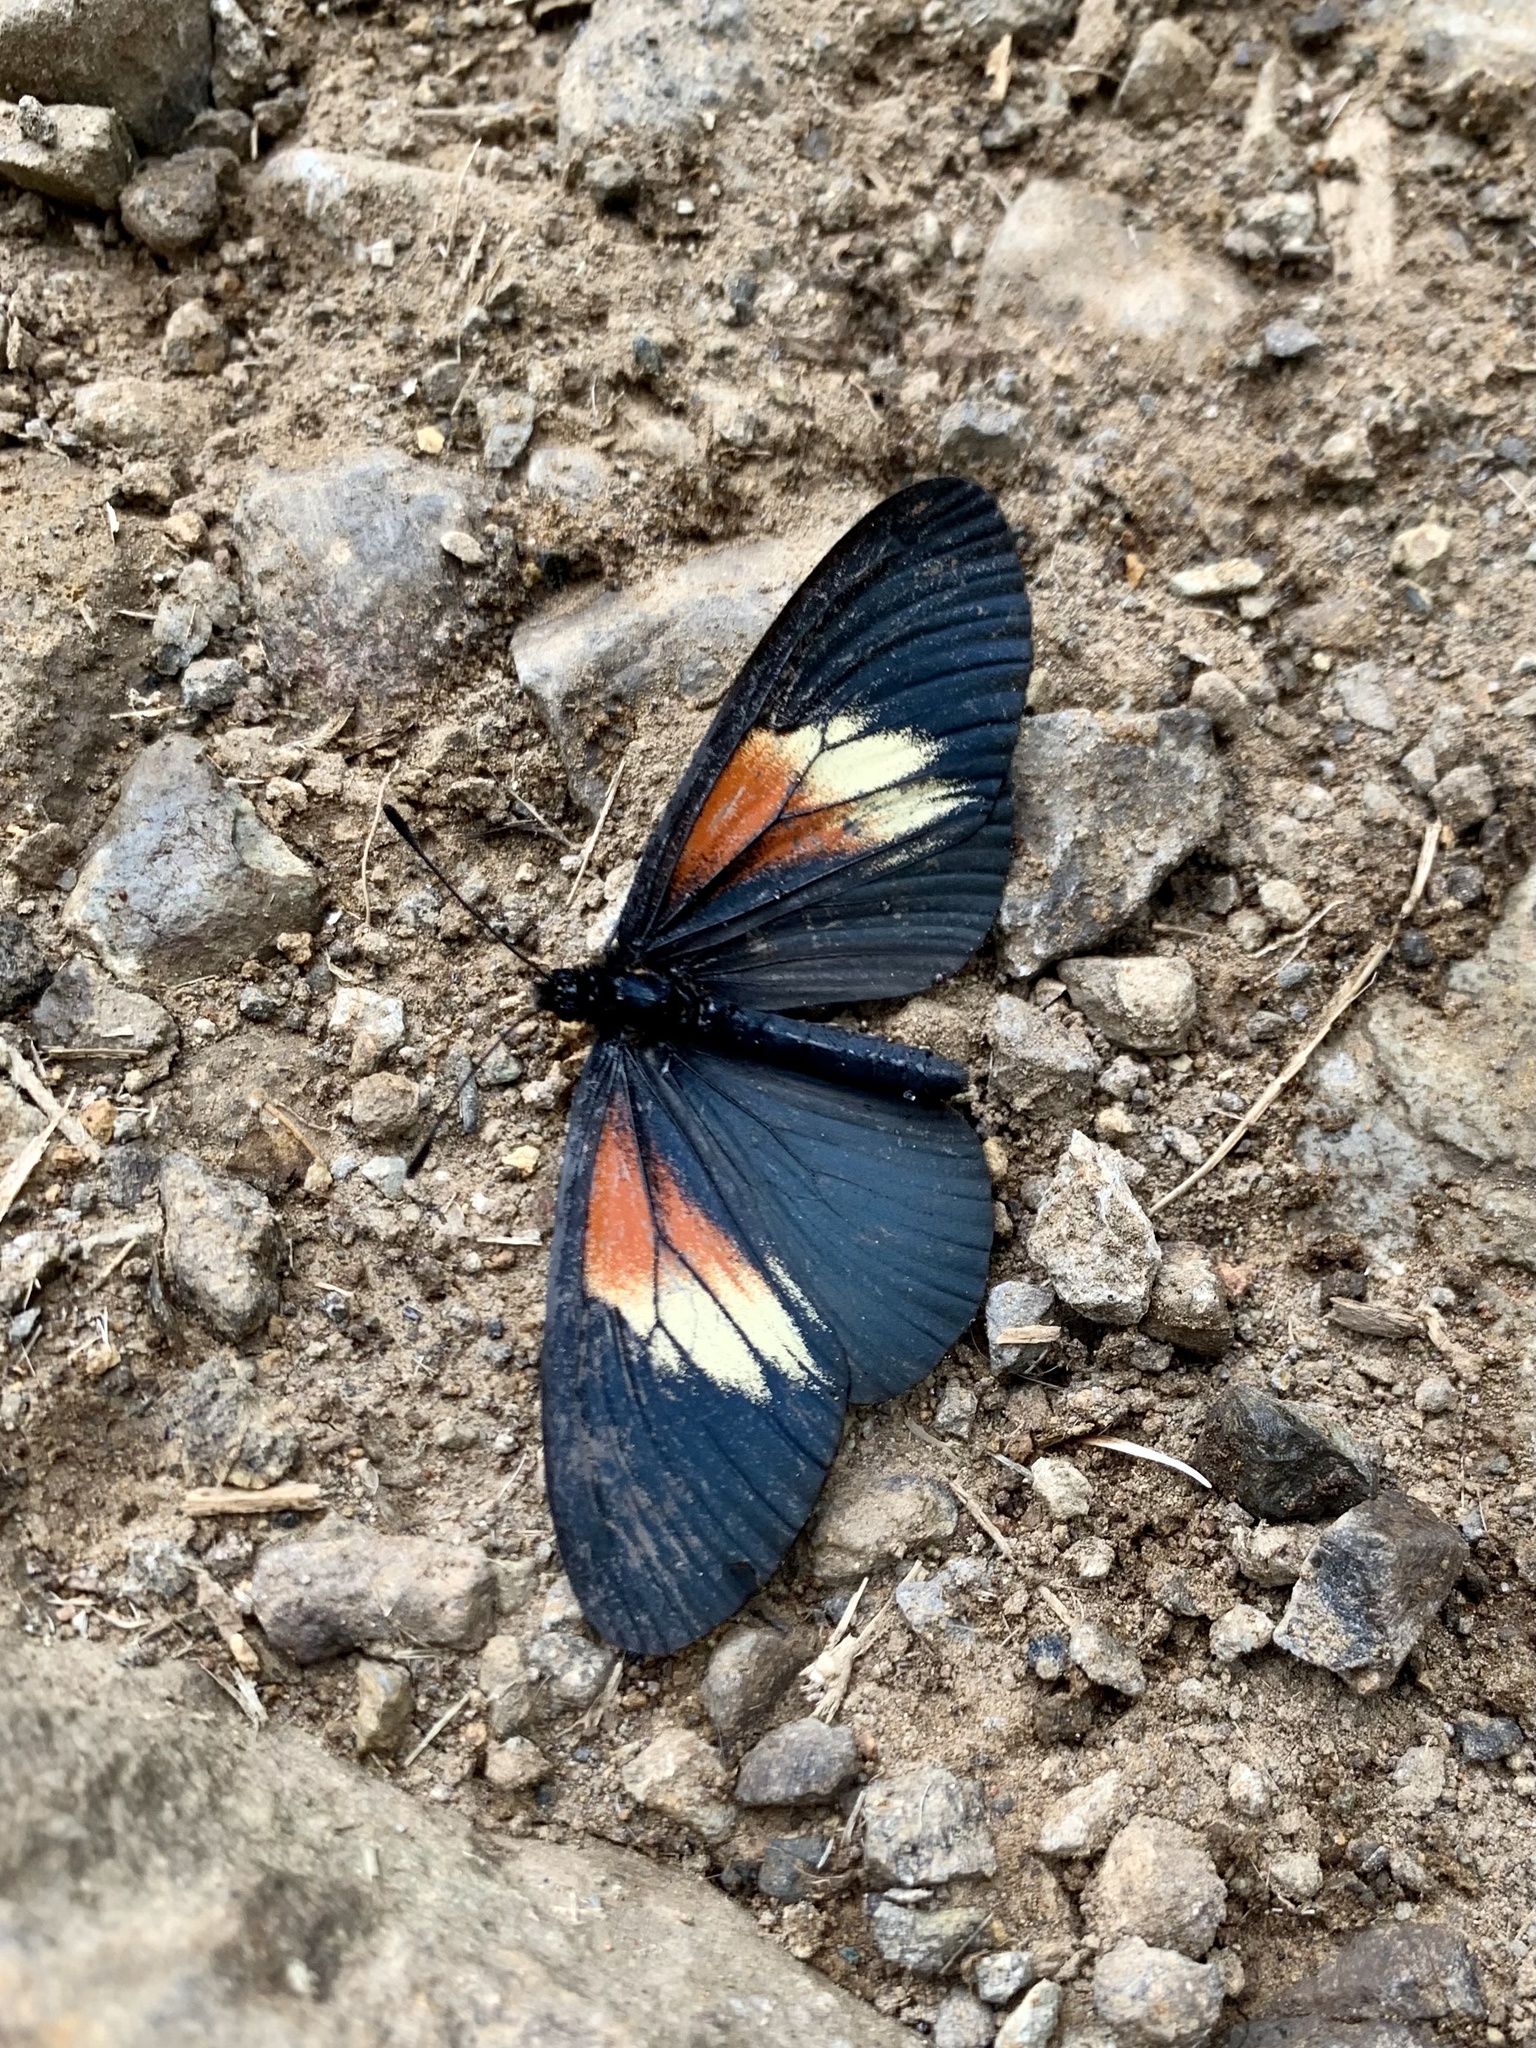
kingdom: Animalia
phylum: Arthropoda
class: Insecta
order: Lepidoptera
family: Nymphalidae
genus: Acraea
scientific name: Acraea Altinote ozomene
